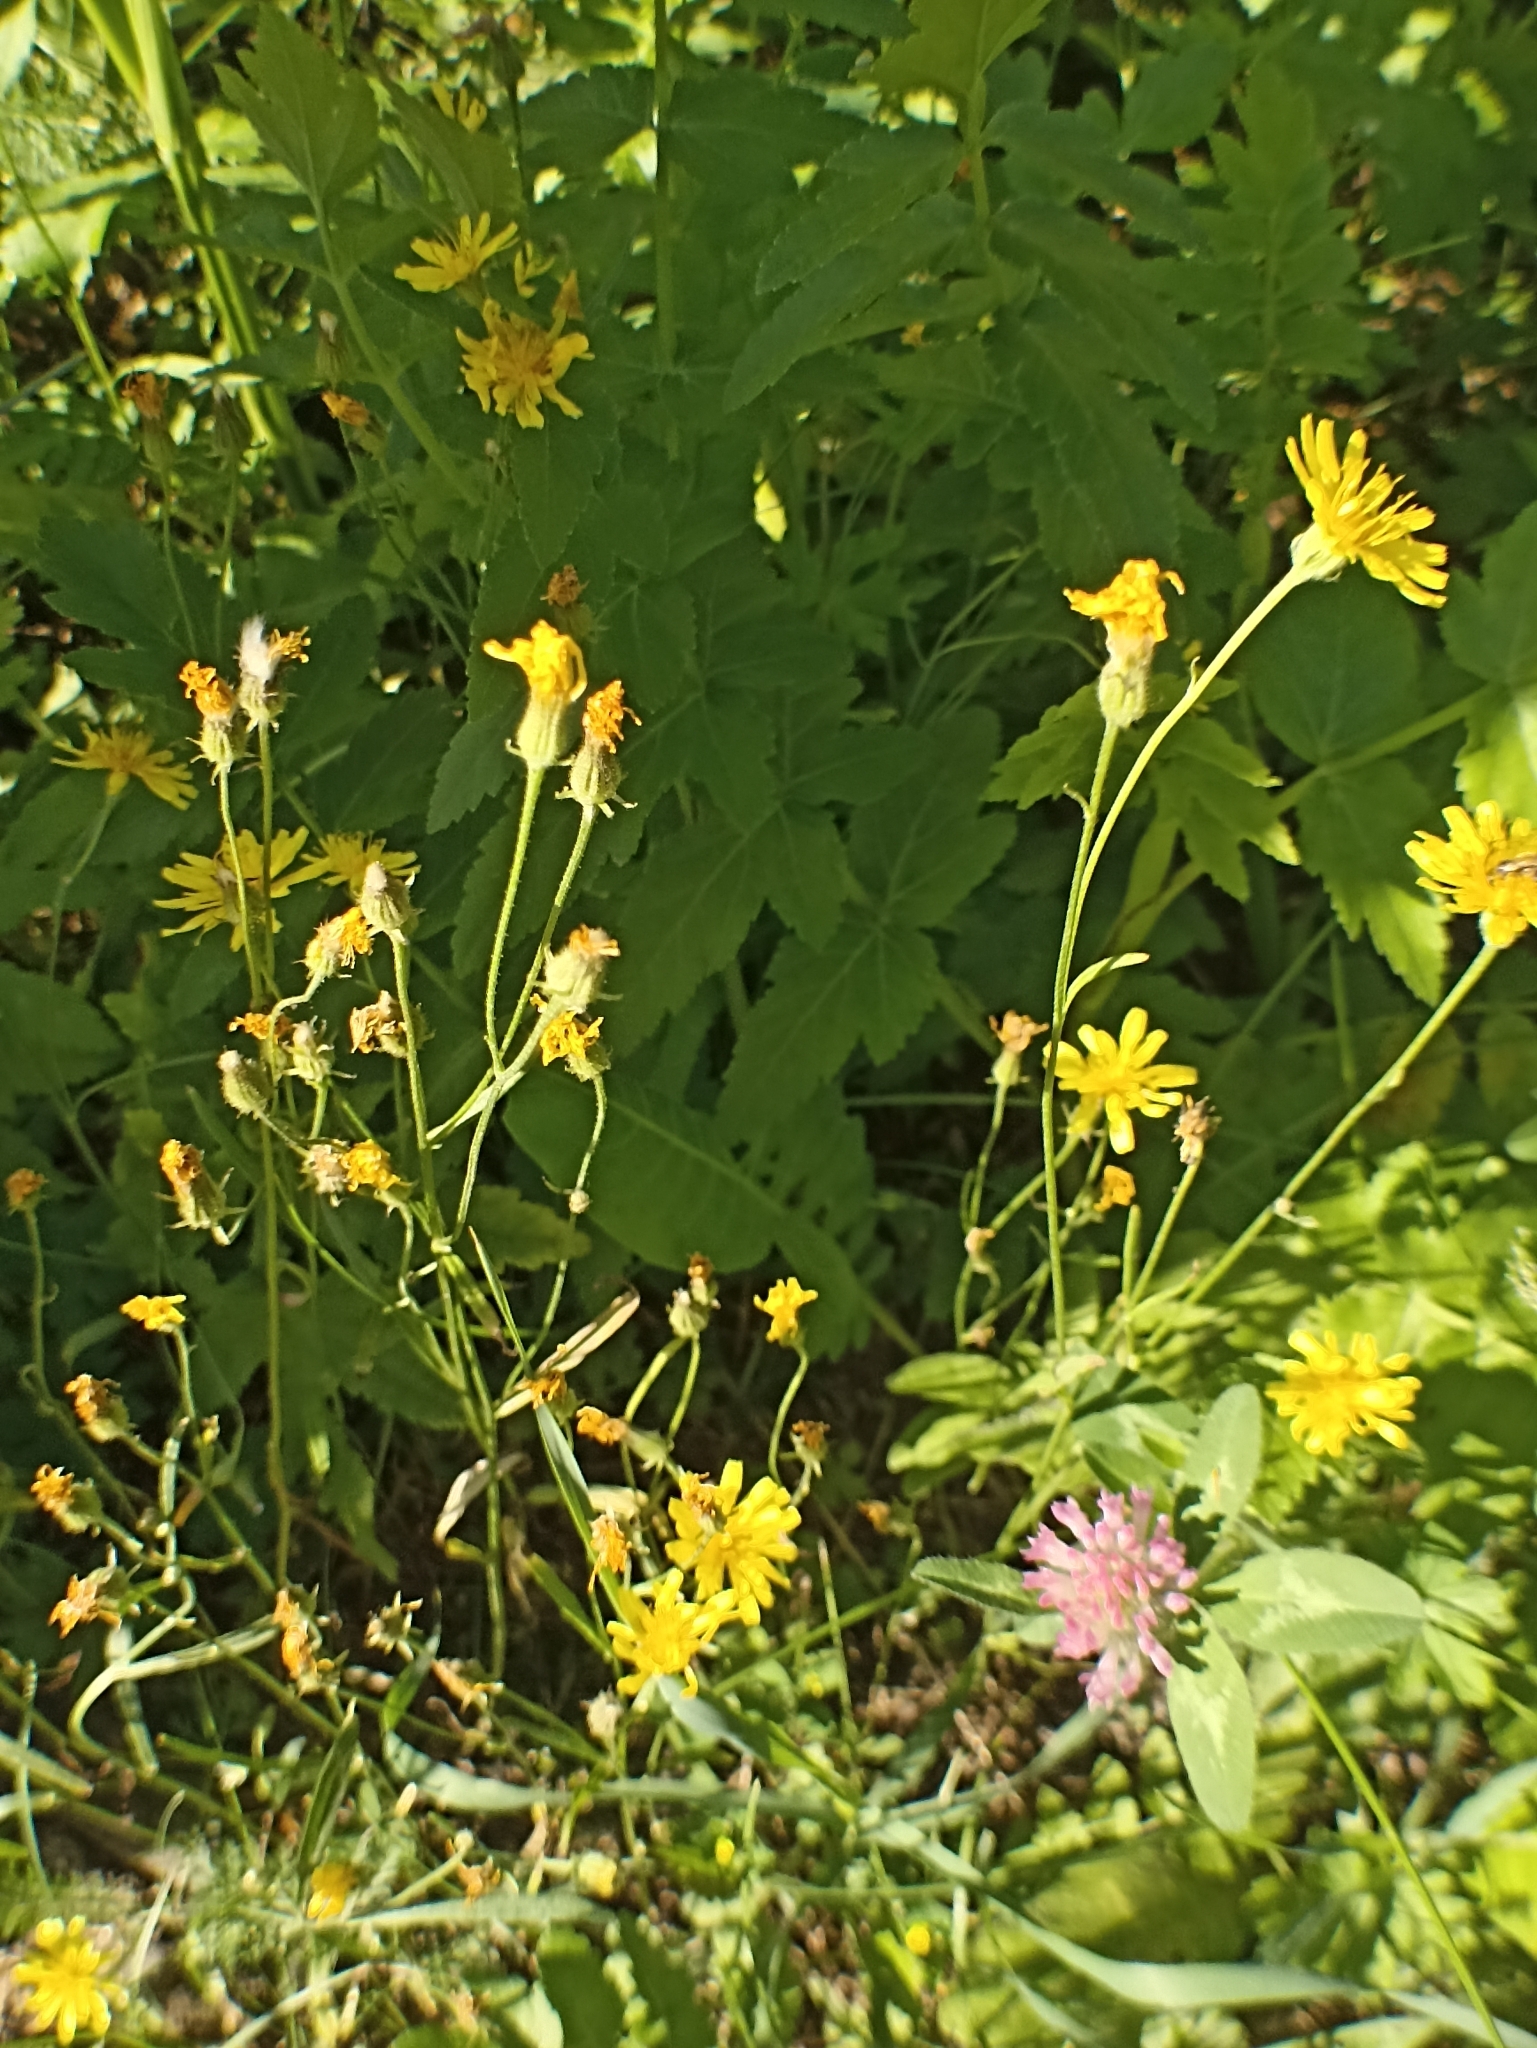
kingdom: Plantae
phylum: Tracheophyta
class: Magnoliopsida
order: Asterales
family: Asteraceae
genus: Crepis
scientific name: Crepis tectorum
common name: Narrow-leaved hawk's-beard
